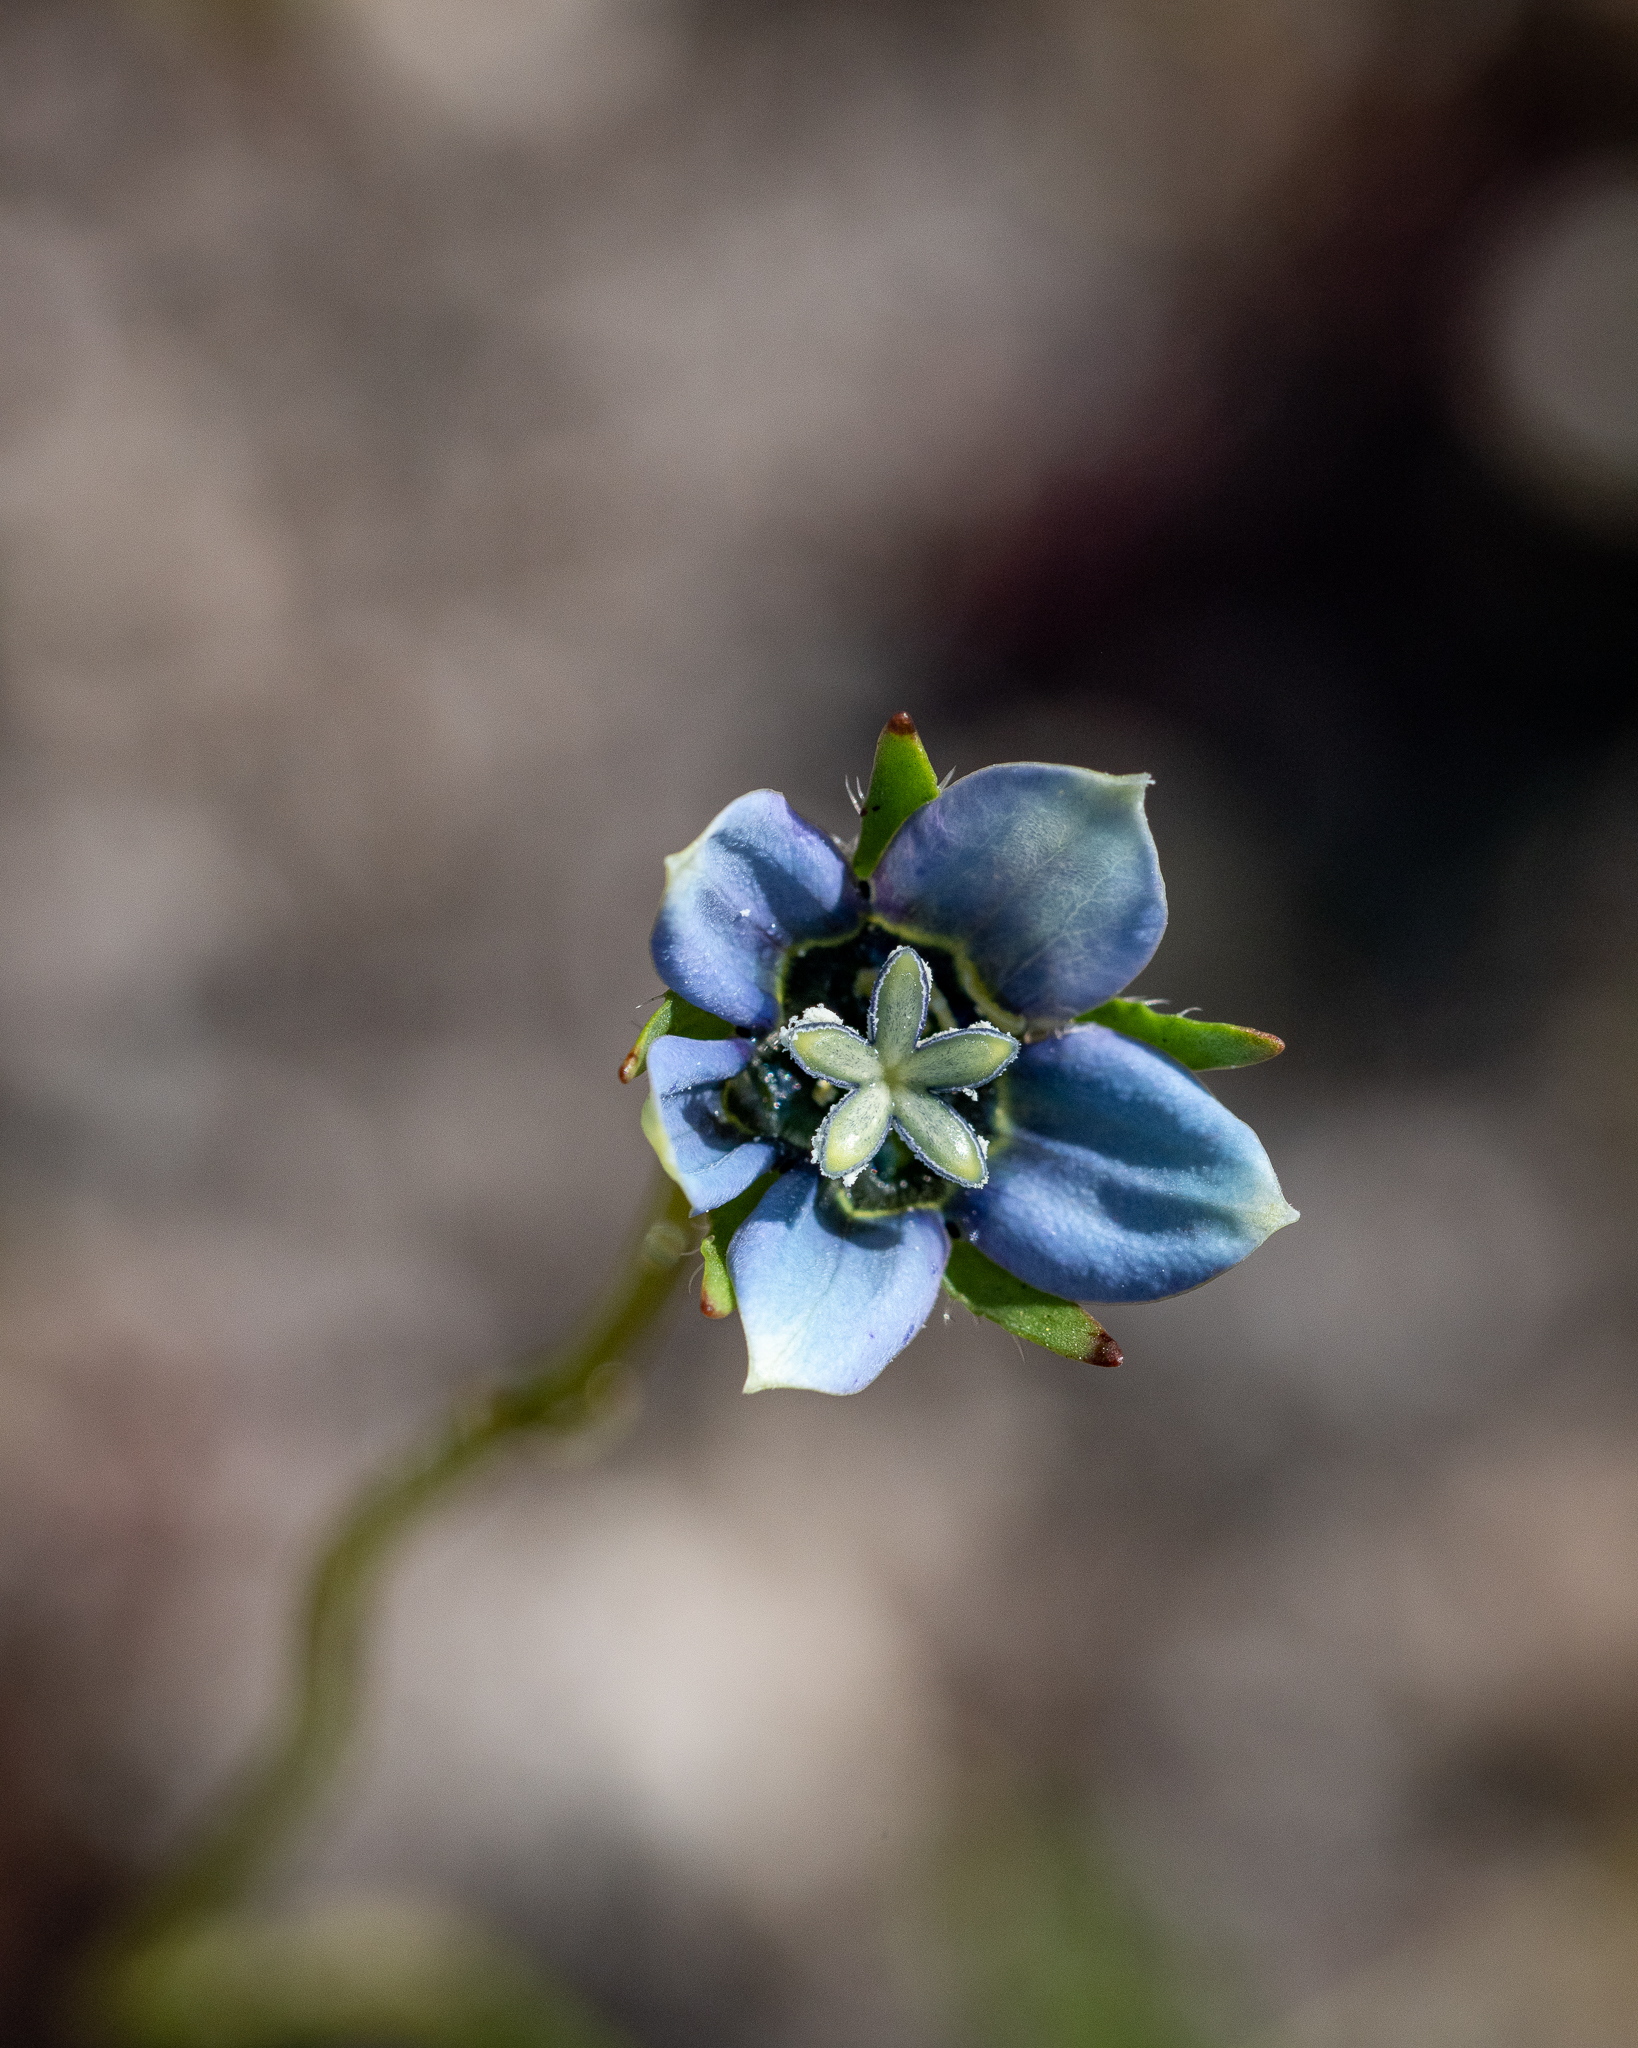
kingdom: Plantae
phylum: Tracheophyta
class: Magnoliopsida
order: Asterales
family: Campanulaceae
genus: Wahlenbergia
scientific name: Wahlenbergia capensis
